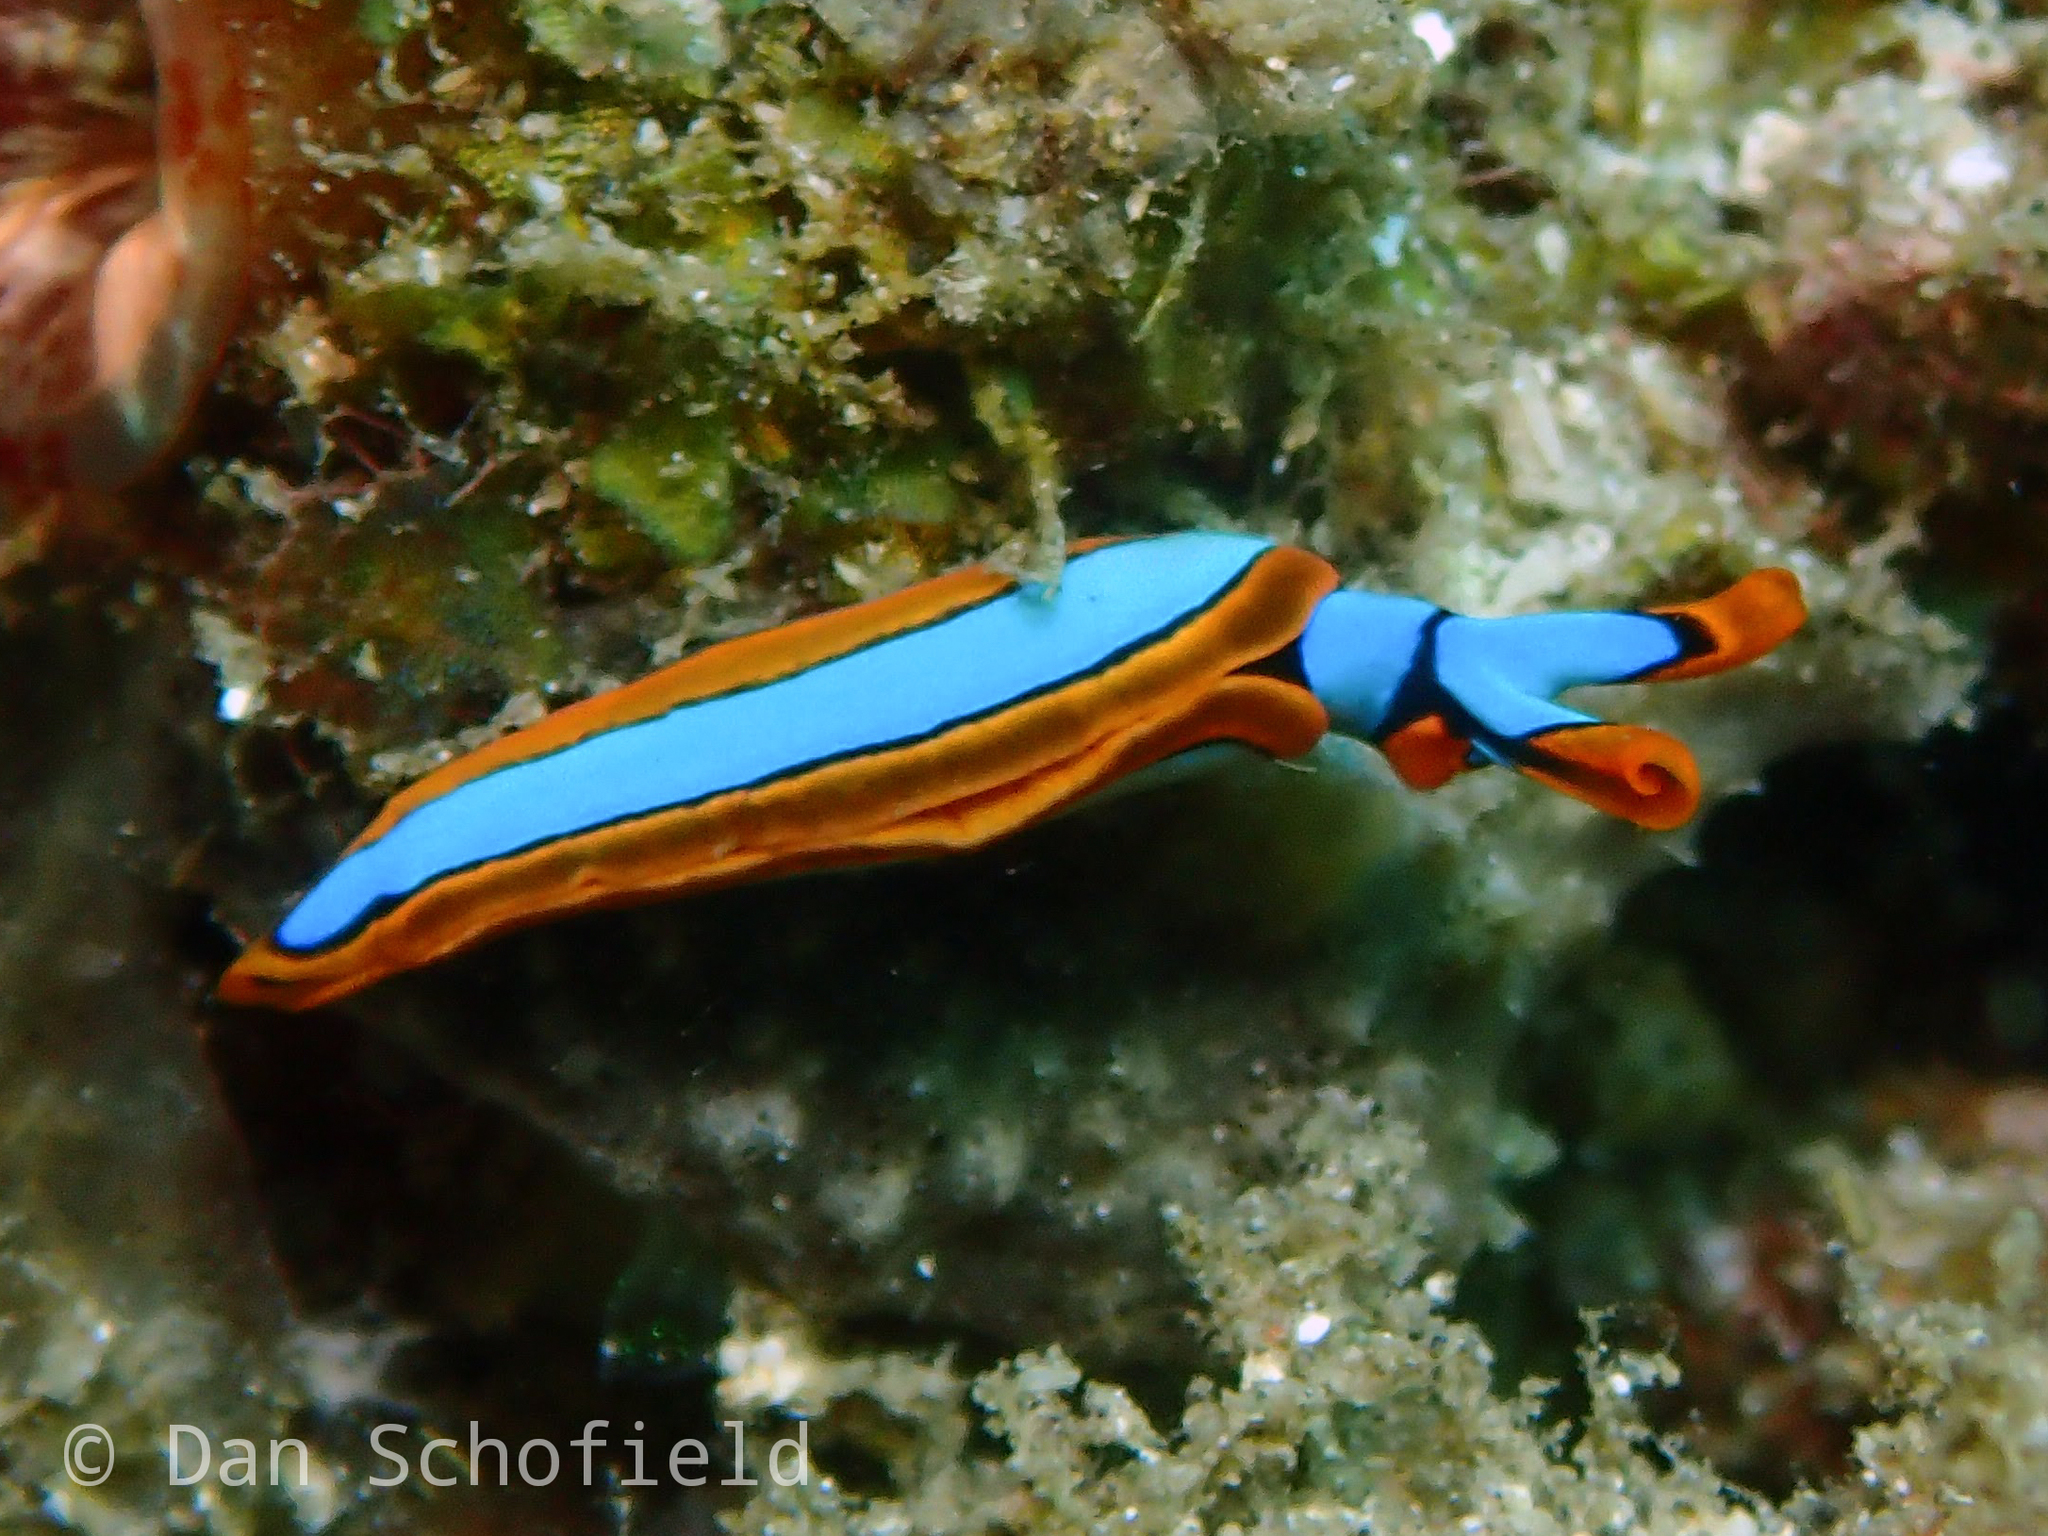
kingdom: Animalia
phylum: Mollusca
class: Gastropoda
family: Plakobranchidae
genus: Thuridilla
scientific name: Thuridilla lineolata
